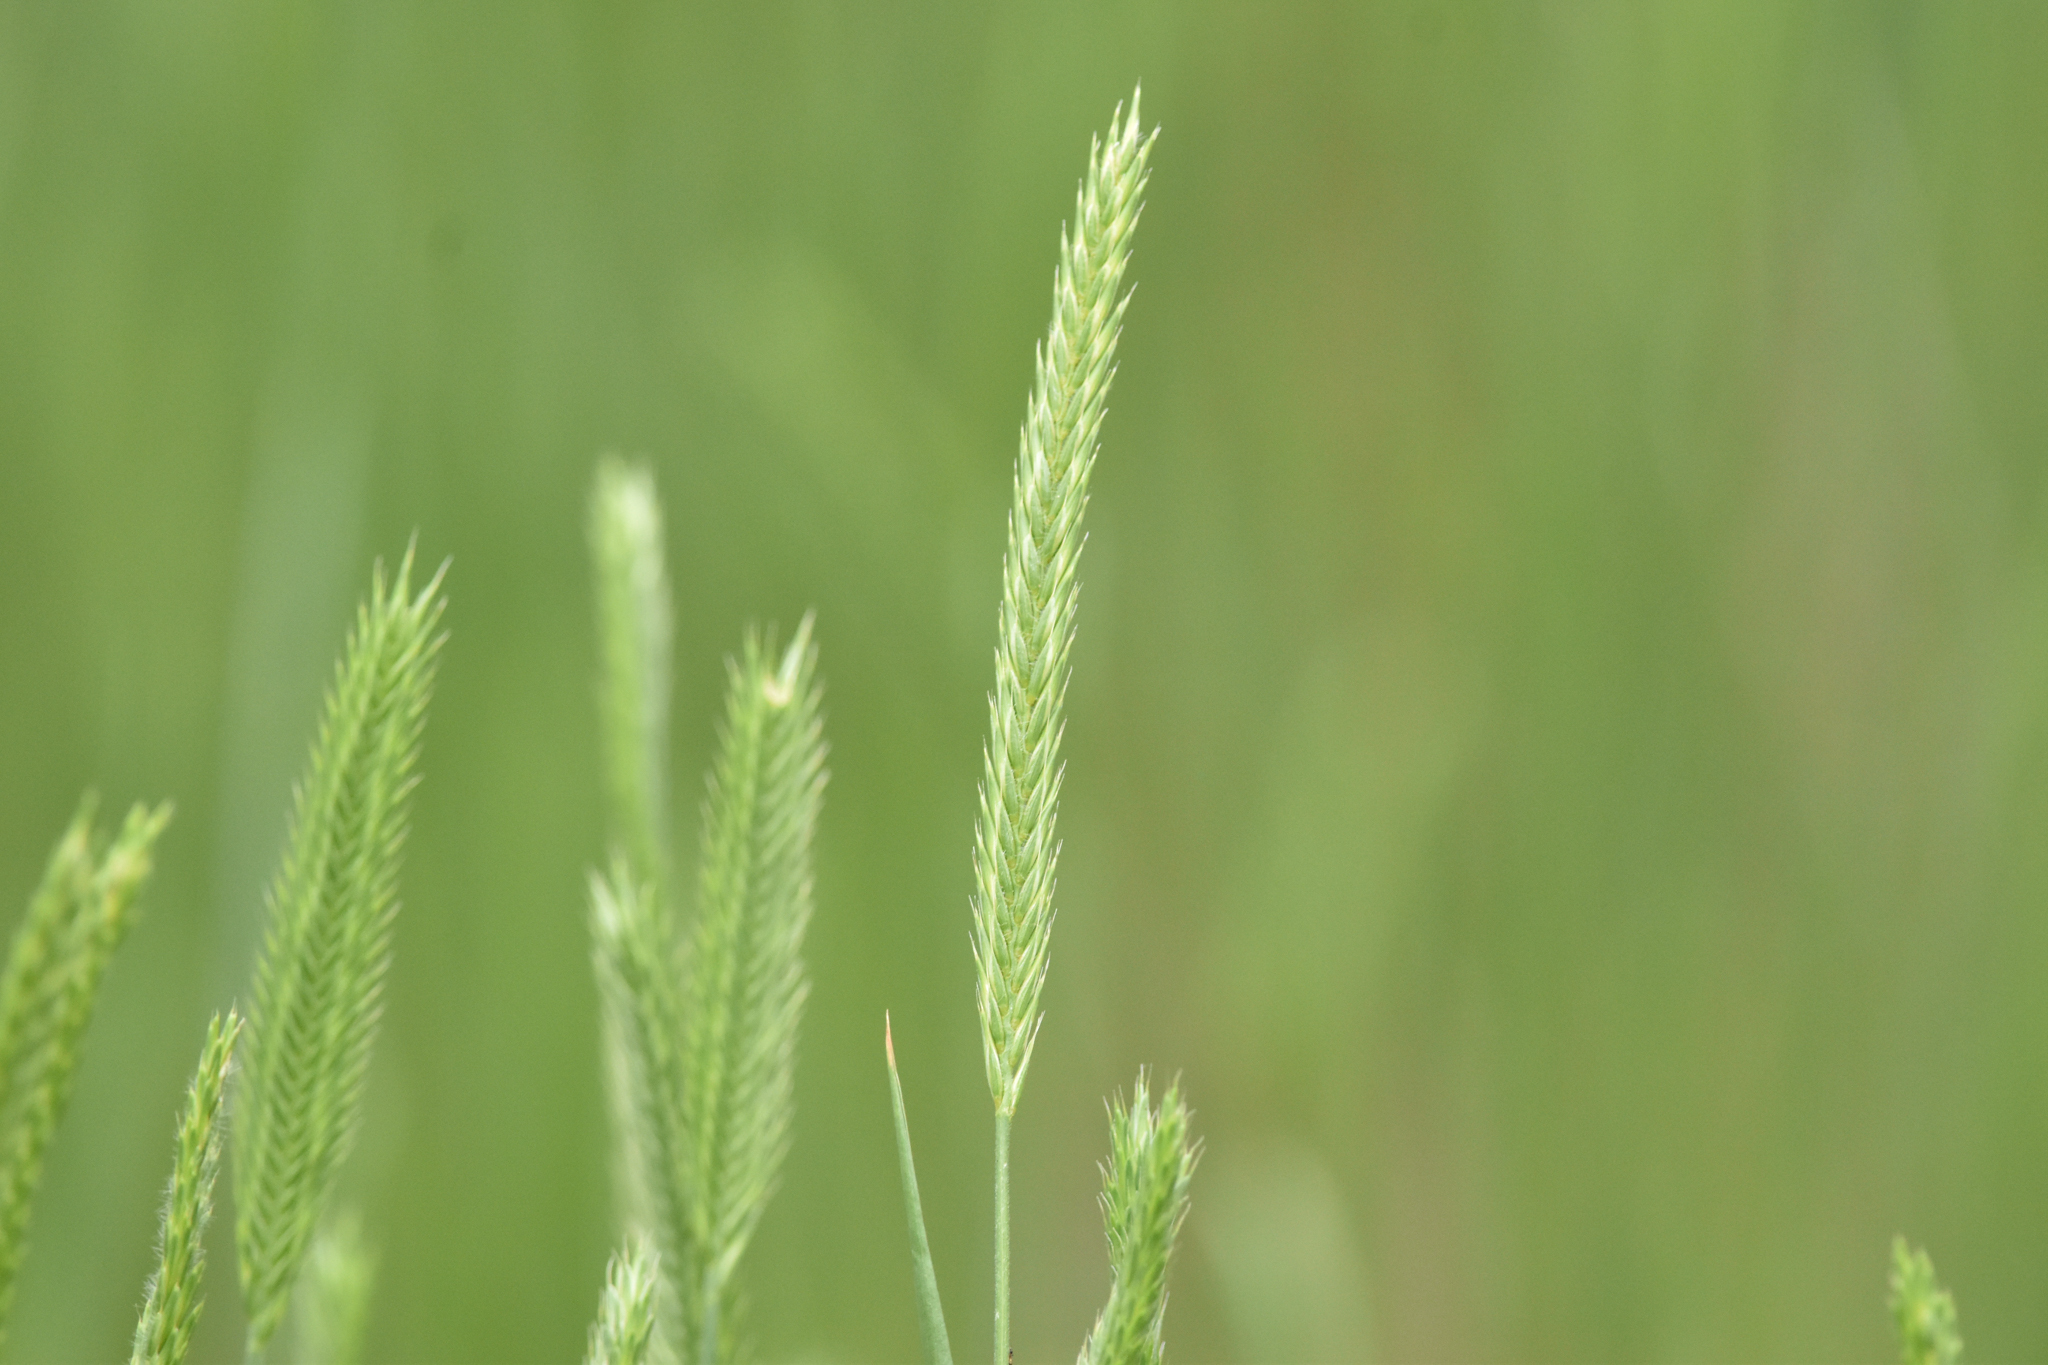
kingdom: Plantae
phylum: Tracheophyta
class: Liliopsida
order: Poales
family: Poaceae
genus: Agropyron
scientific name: Agropyron cristatum
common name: Crested wheatgrass
